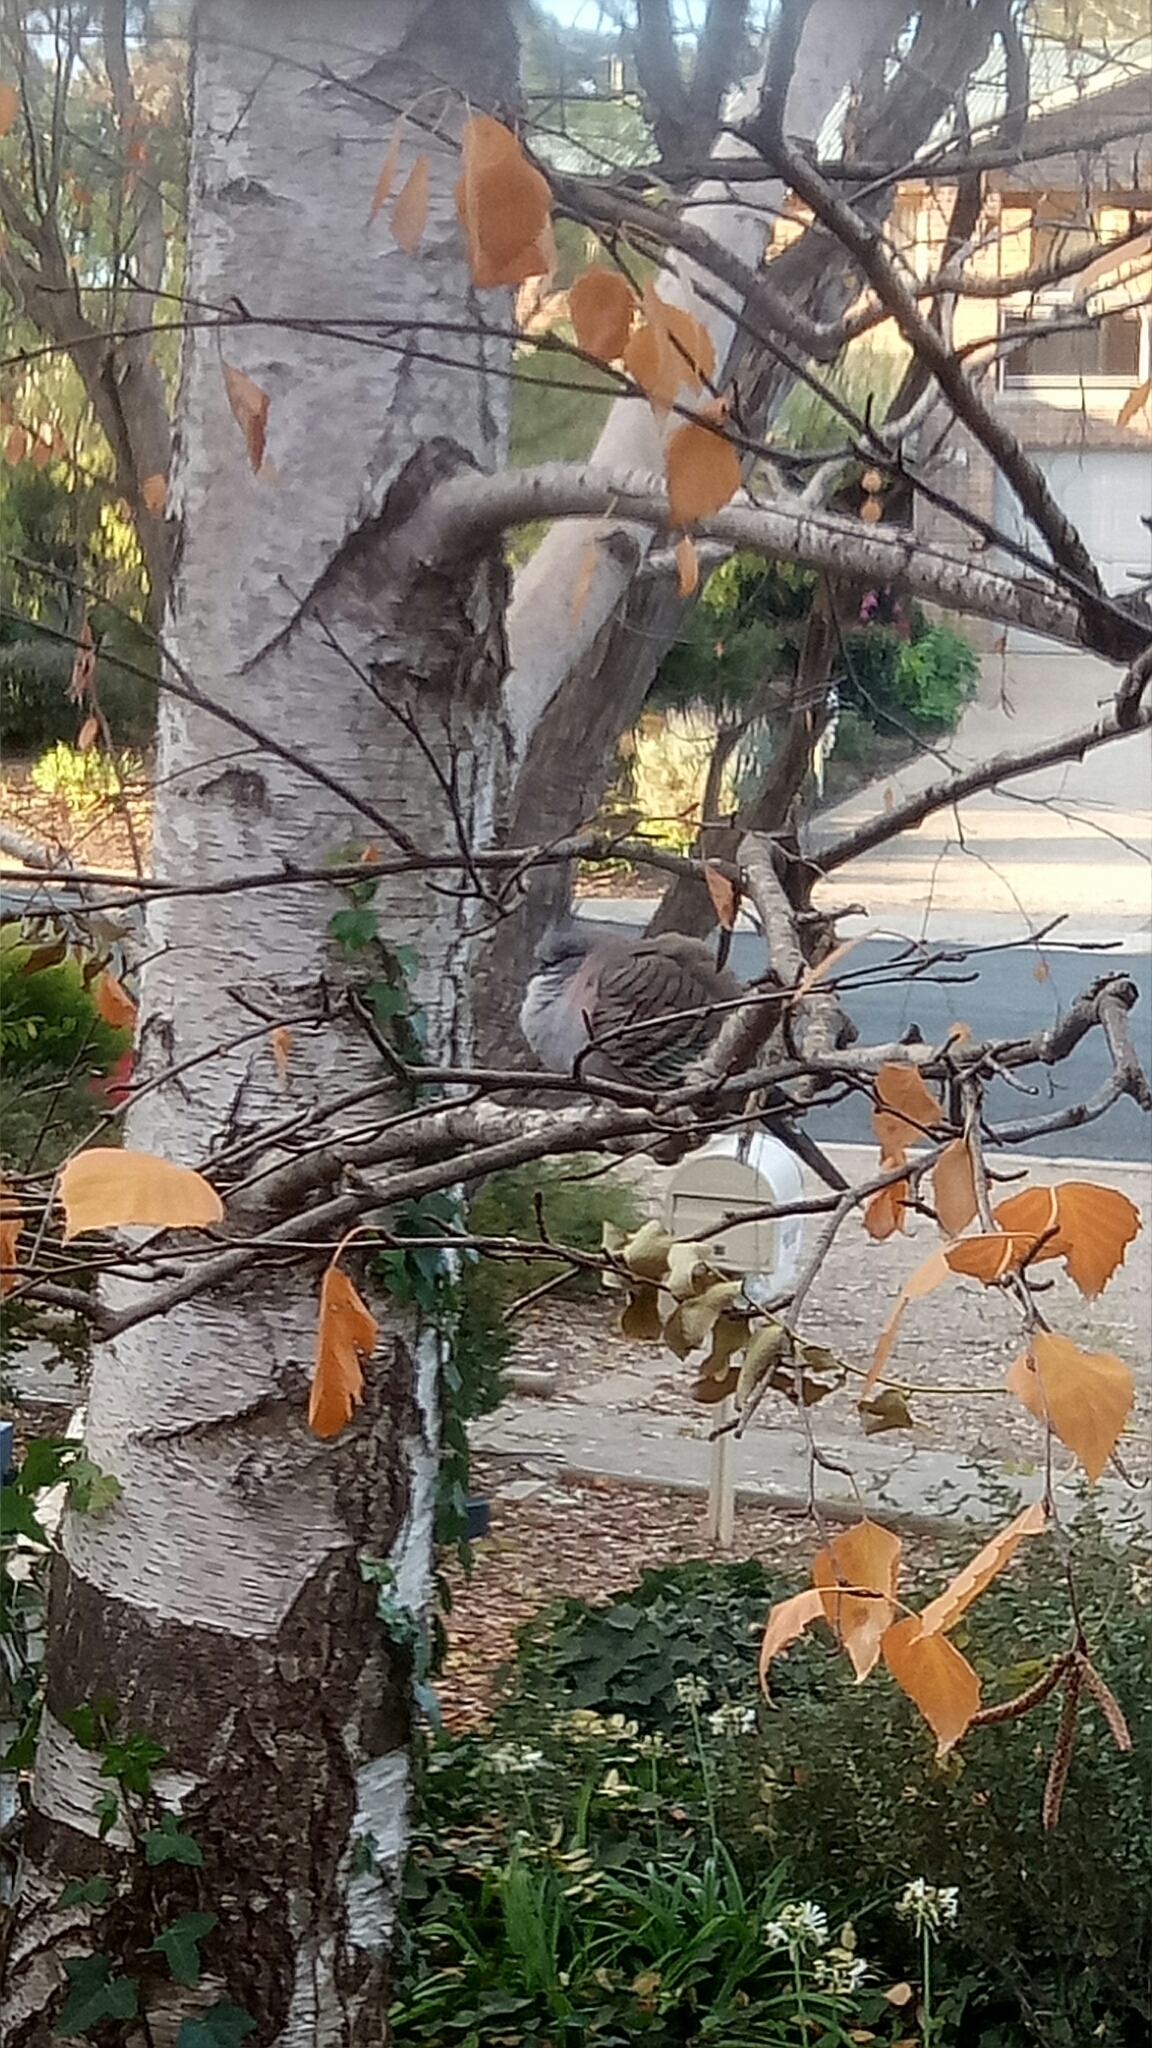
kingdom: Animalia
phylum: Chordata
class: Aves
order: Columbiformes
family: Columbidae
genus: Ocyphaps
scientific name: Ocyphaps lophotes
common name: Crested pigeon
